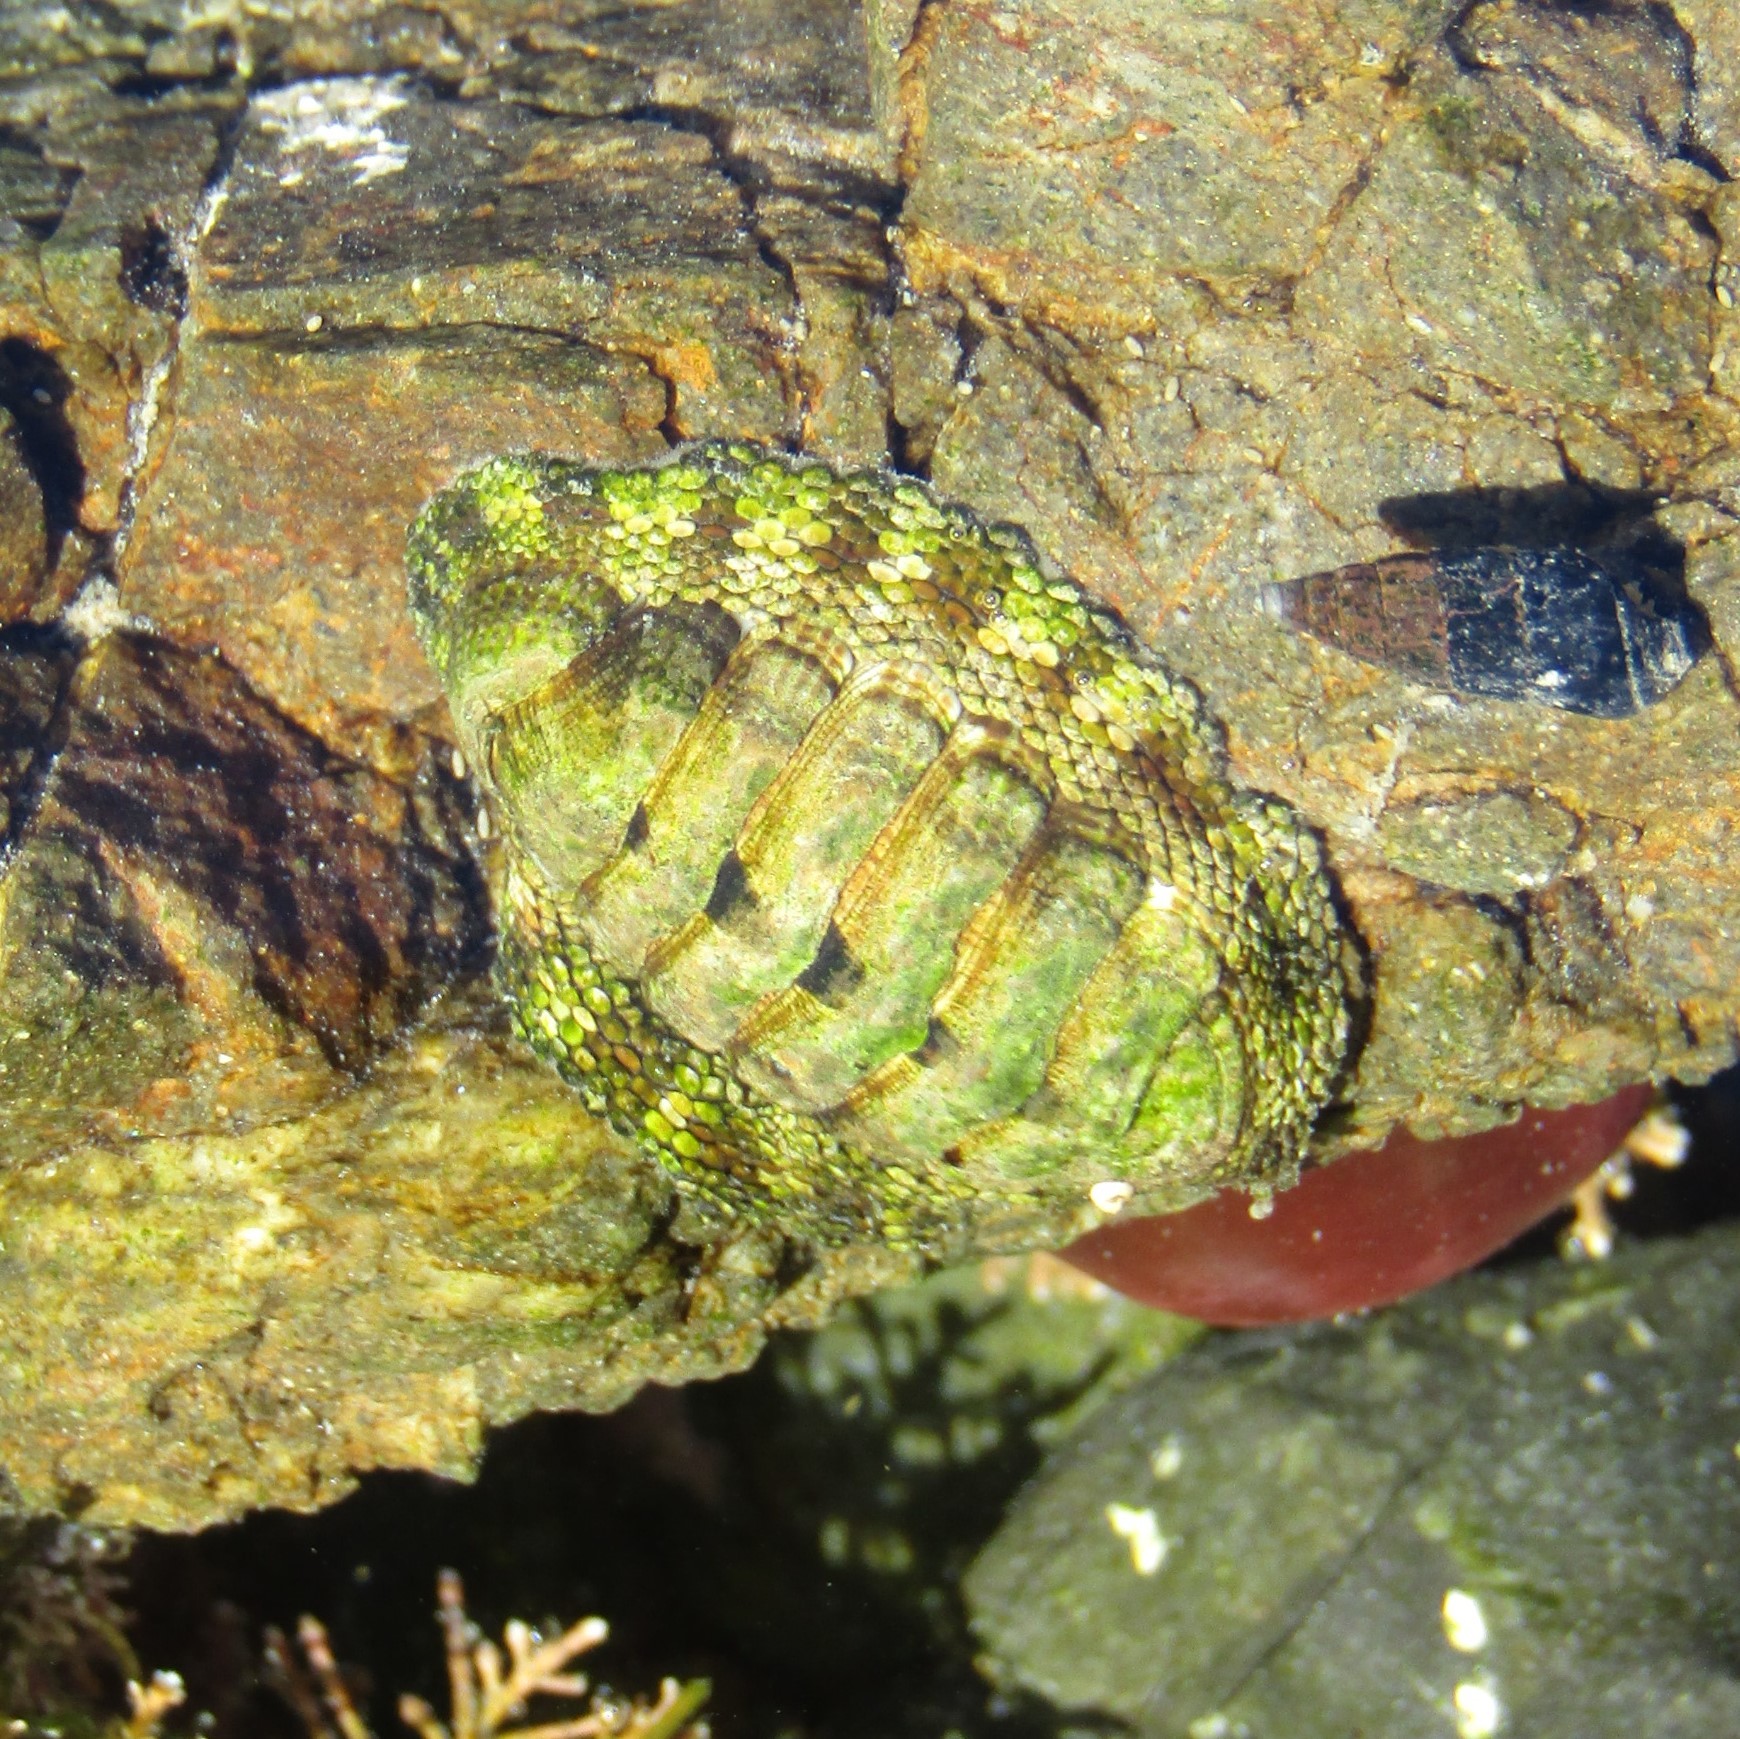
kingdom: Animalia
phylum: Mollusca
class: Polyplacophora
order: Chitonida
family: Chitonidae
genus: Sypharochiton
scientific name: Sypharochiton pelliserpentis
